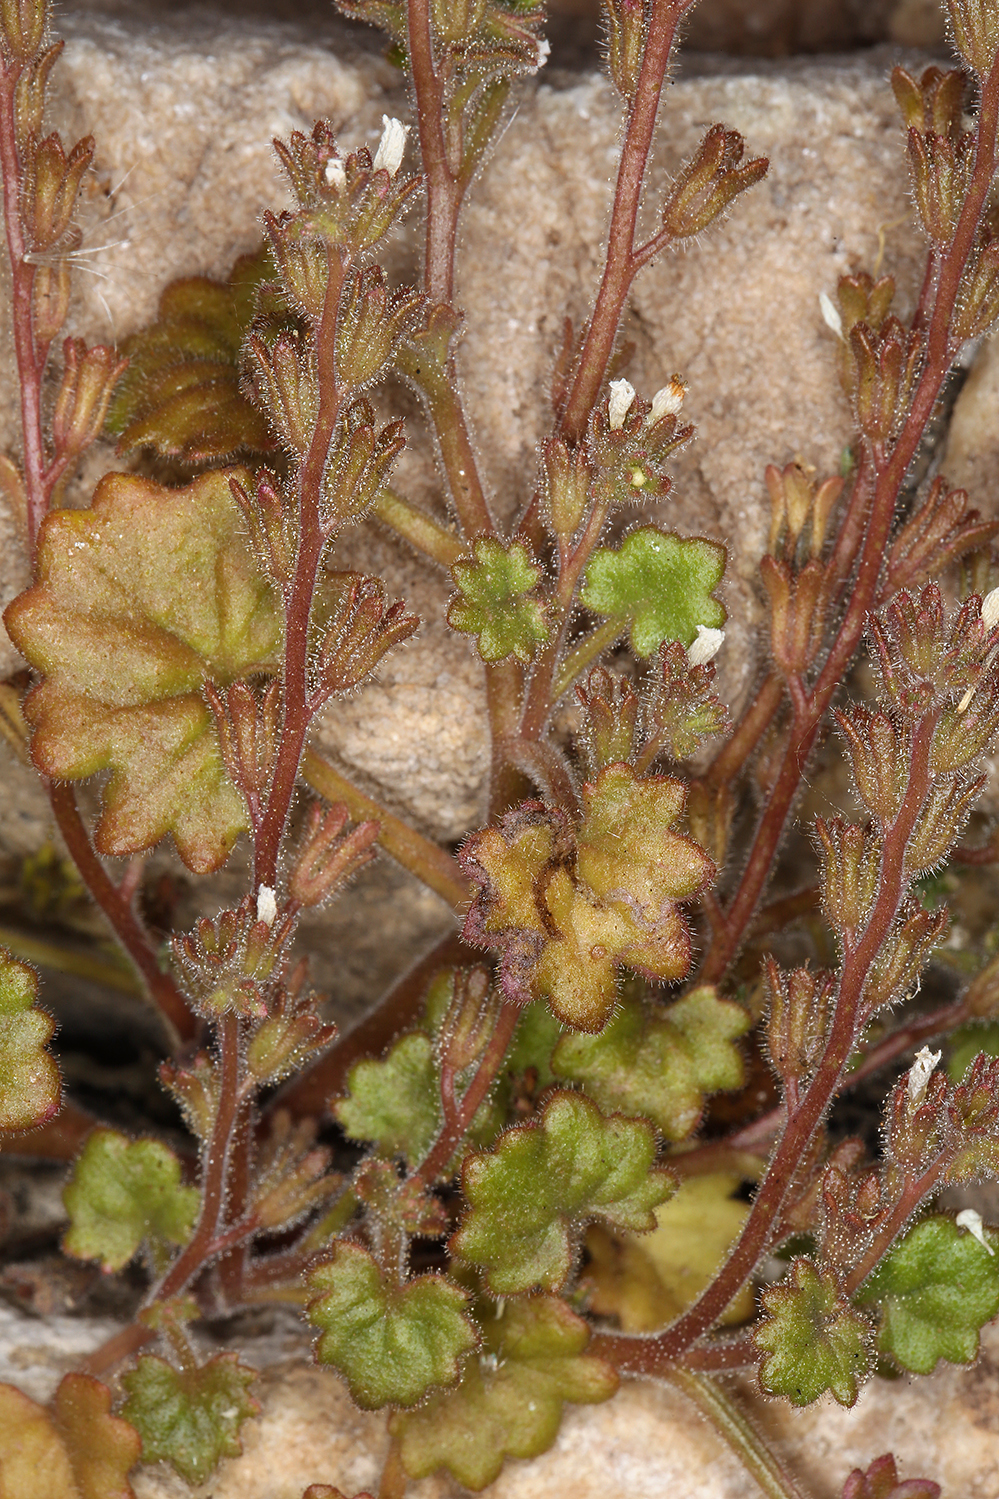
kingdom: Plantae
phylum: Tracheophyta
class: Magnoliopsida
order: Boraginales
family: Hydrophyllaceae
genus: Phacelia
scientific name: Phacelia rotundifolia
